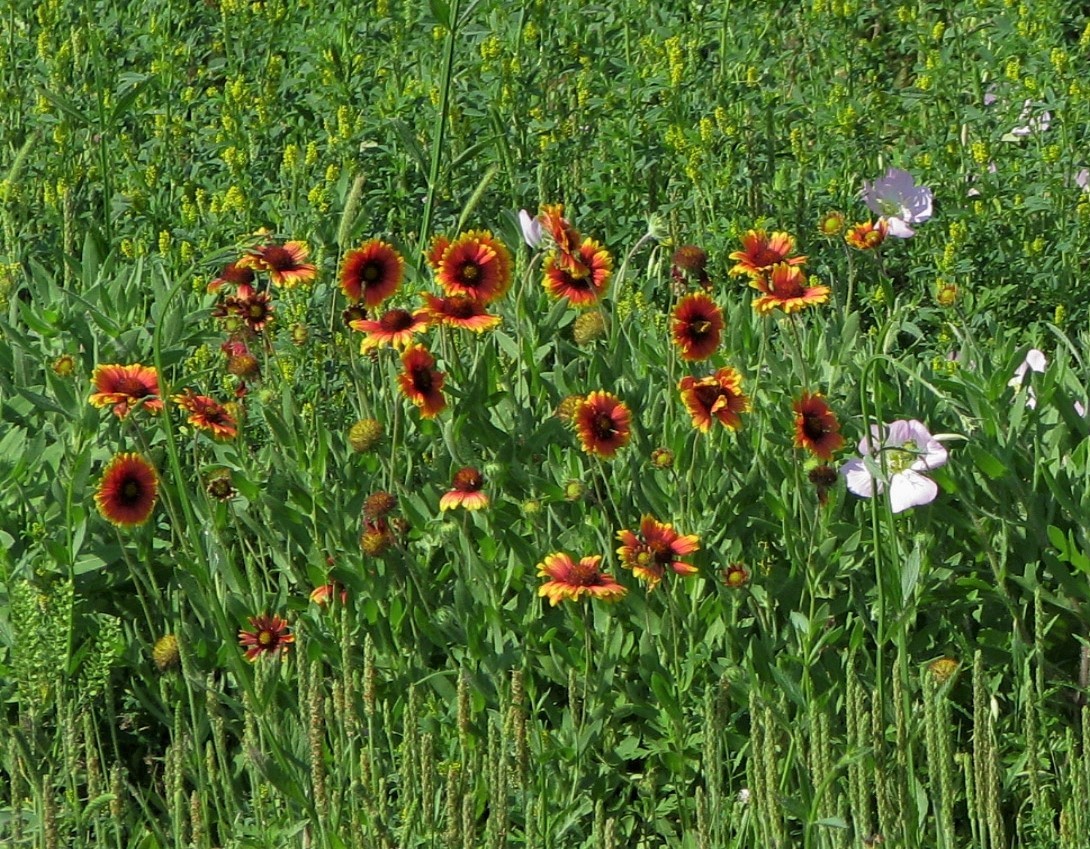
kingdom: Plantae
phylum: Tracheophyta
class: Magnoliopsida
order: Asterales
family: Asteraceae
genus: Gaillardia
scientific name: Gaillardia pulchella
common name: Firewheel
